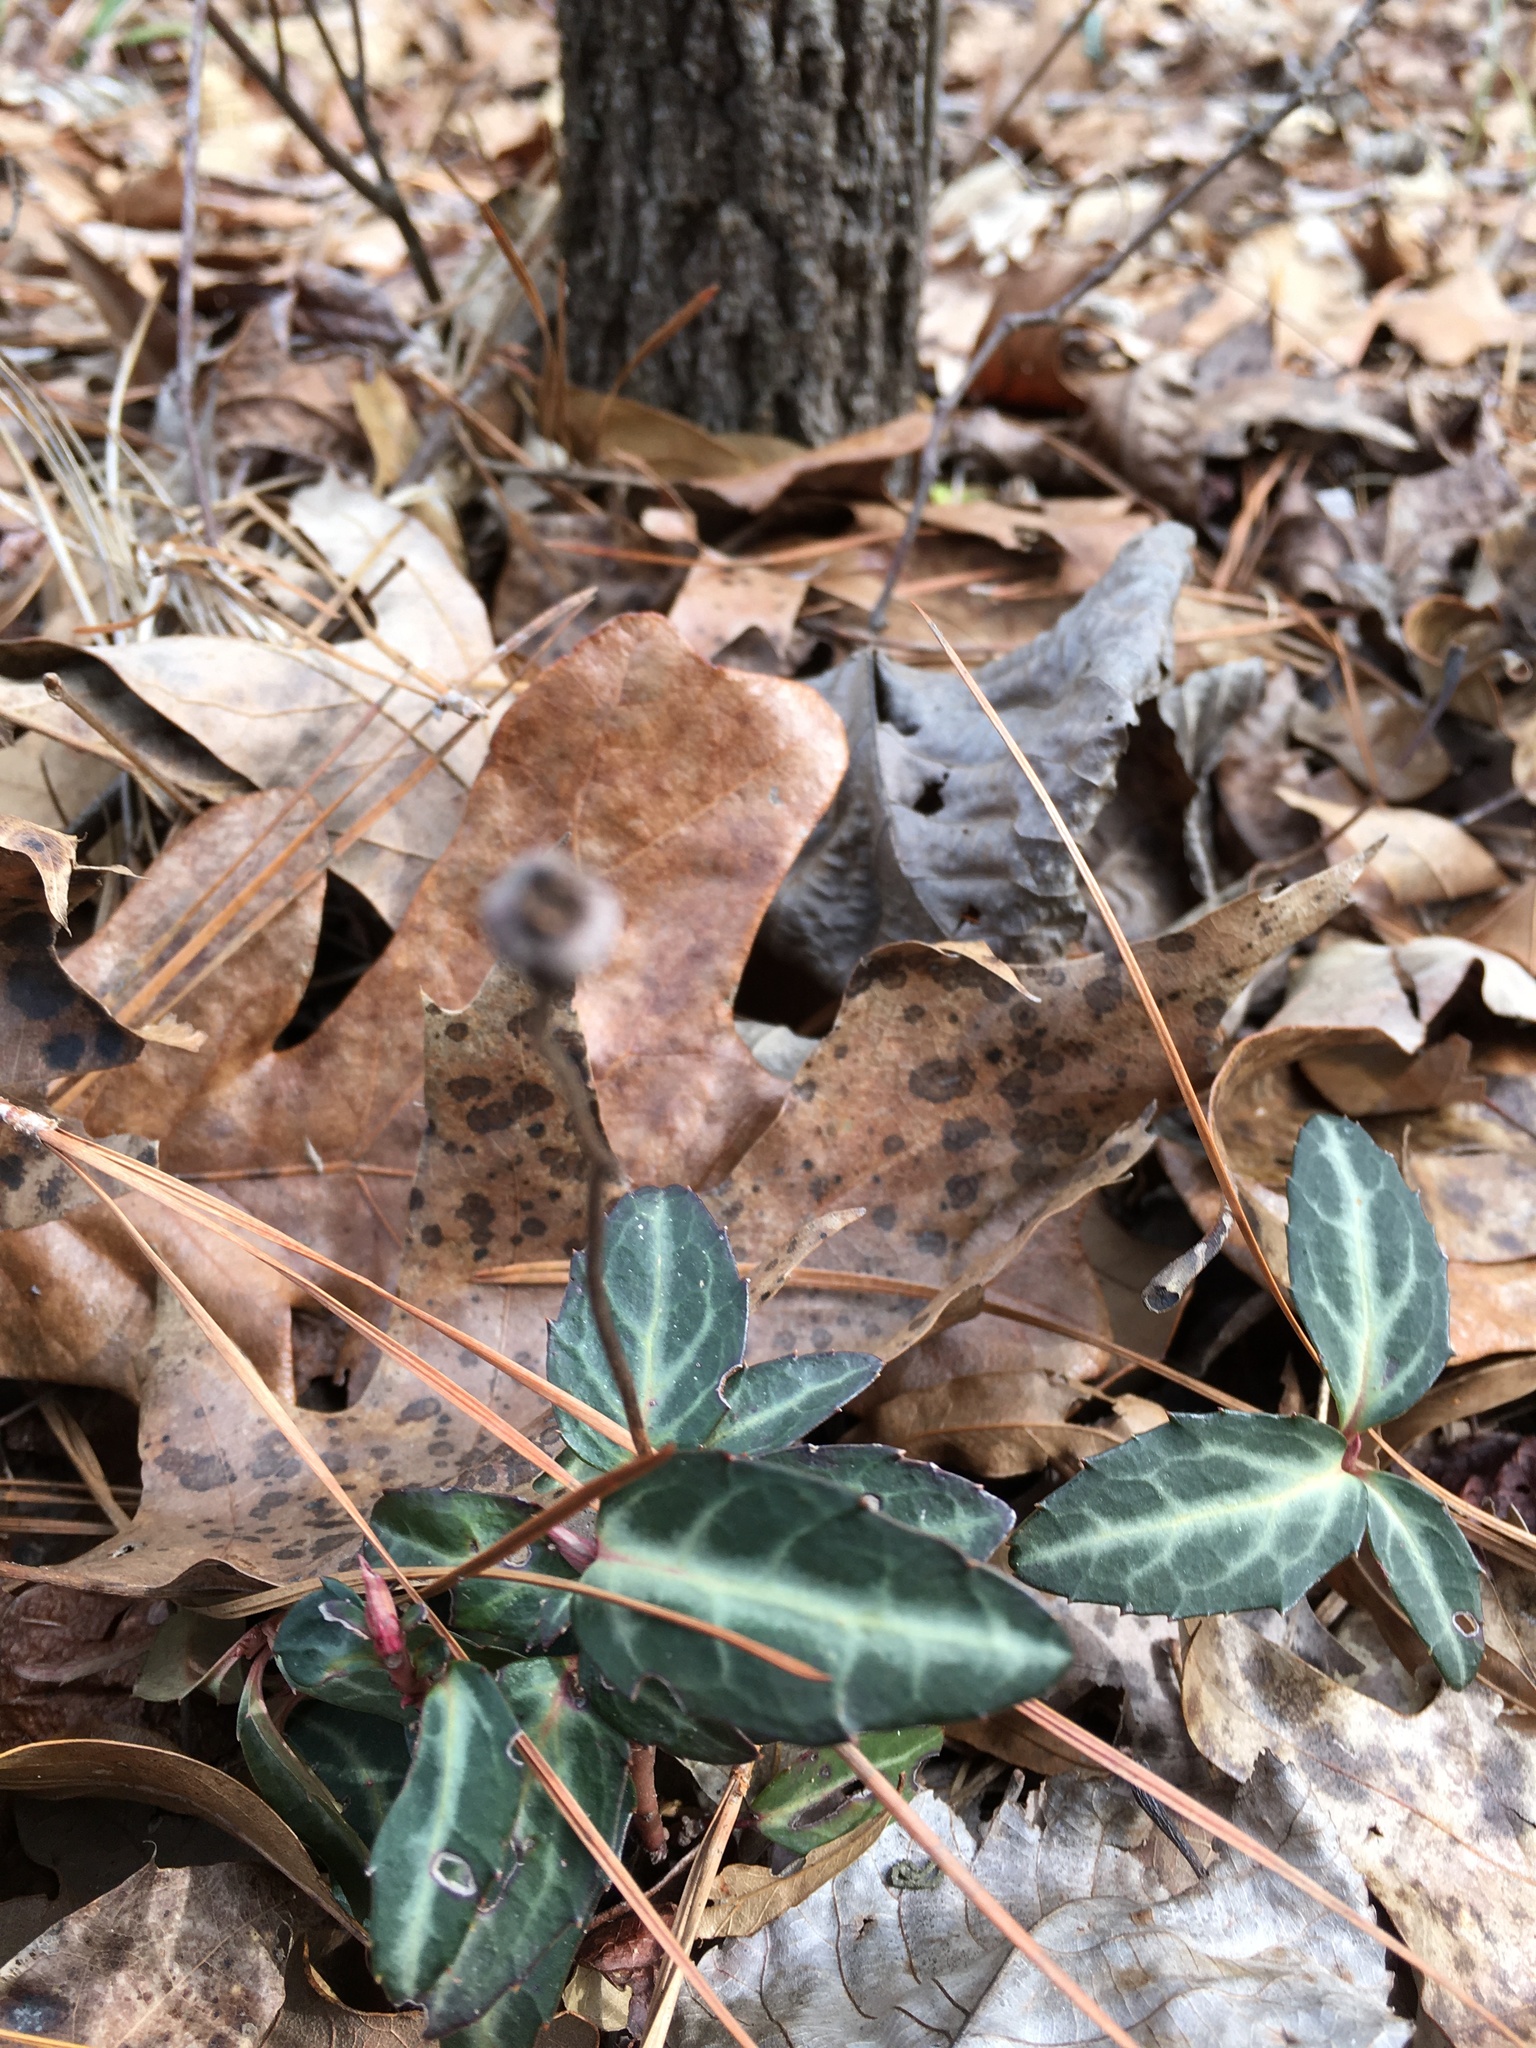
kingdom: Plantae
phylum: Tracheophyta
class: Magnoliopsida
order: Ericales
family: Ericaceae
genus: Chimaphila
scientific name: Chimaphila maculata
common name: Spotted pipsissewa
